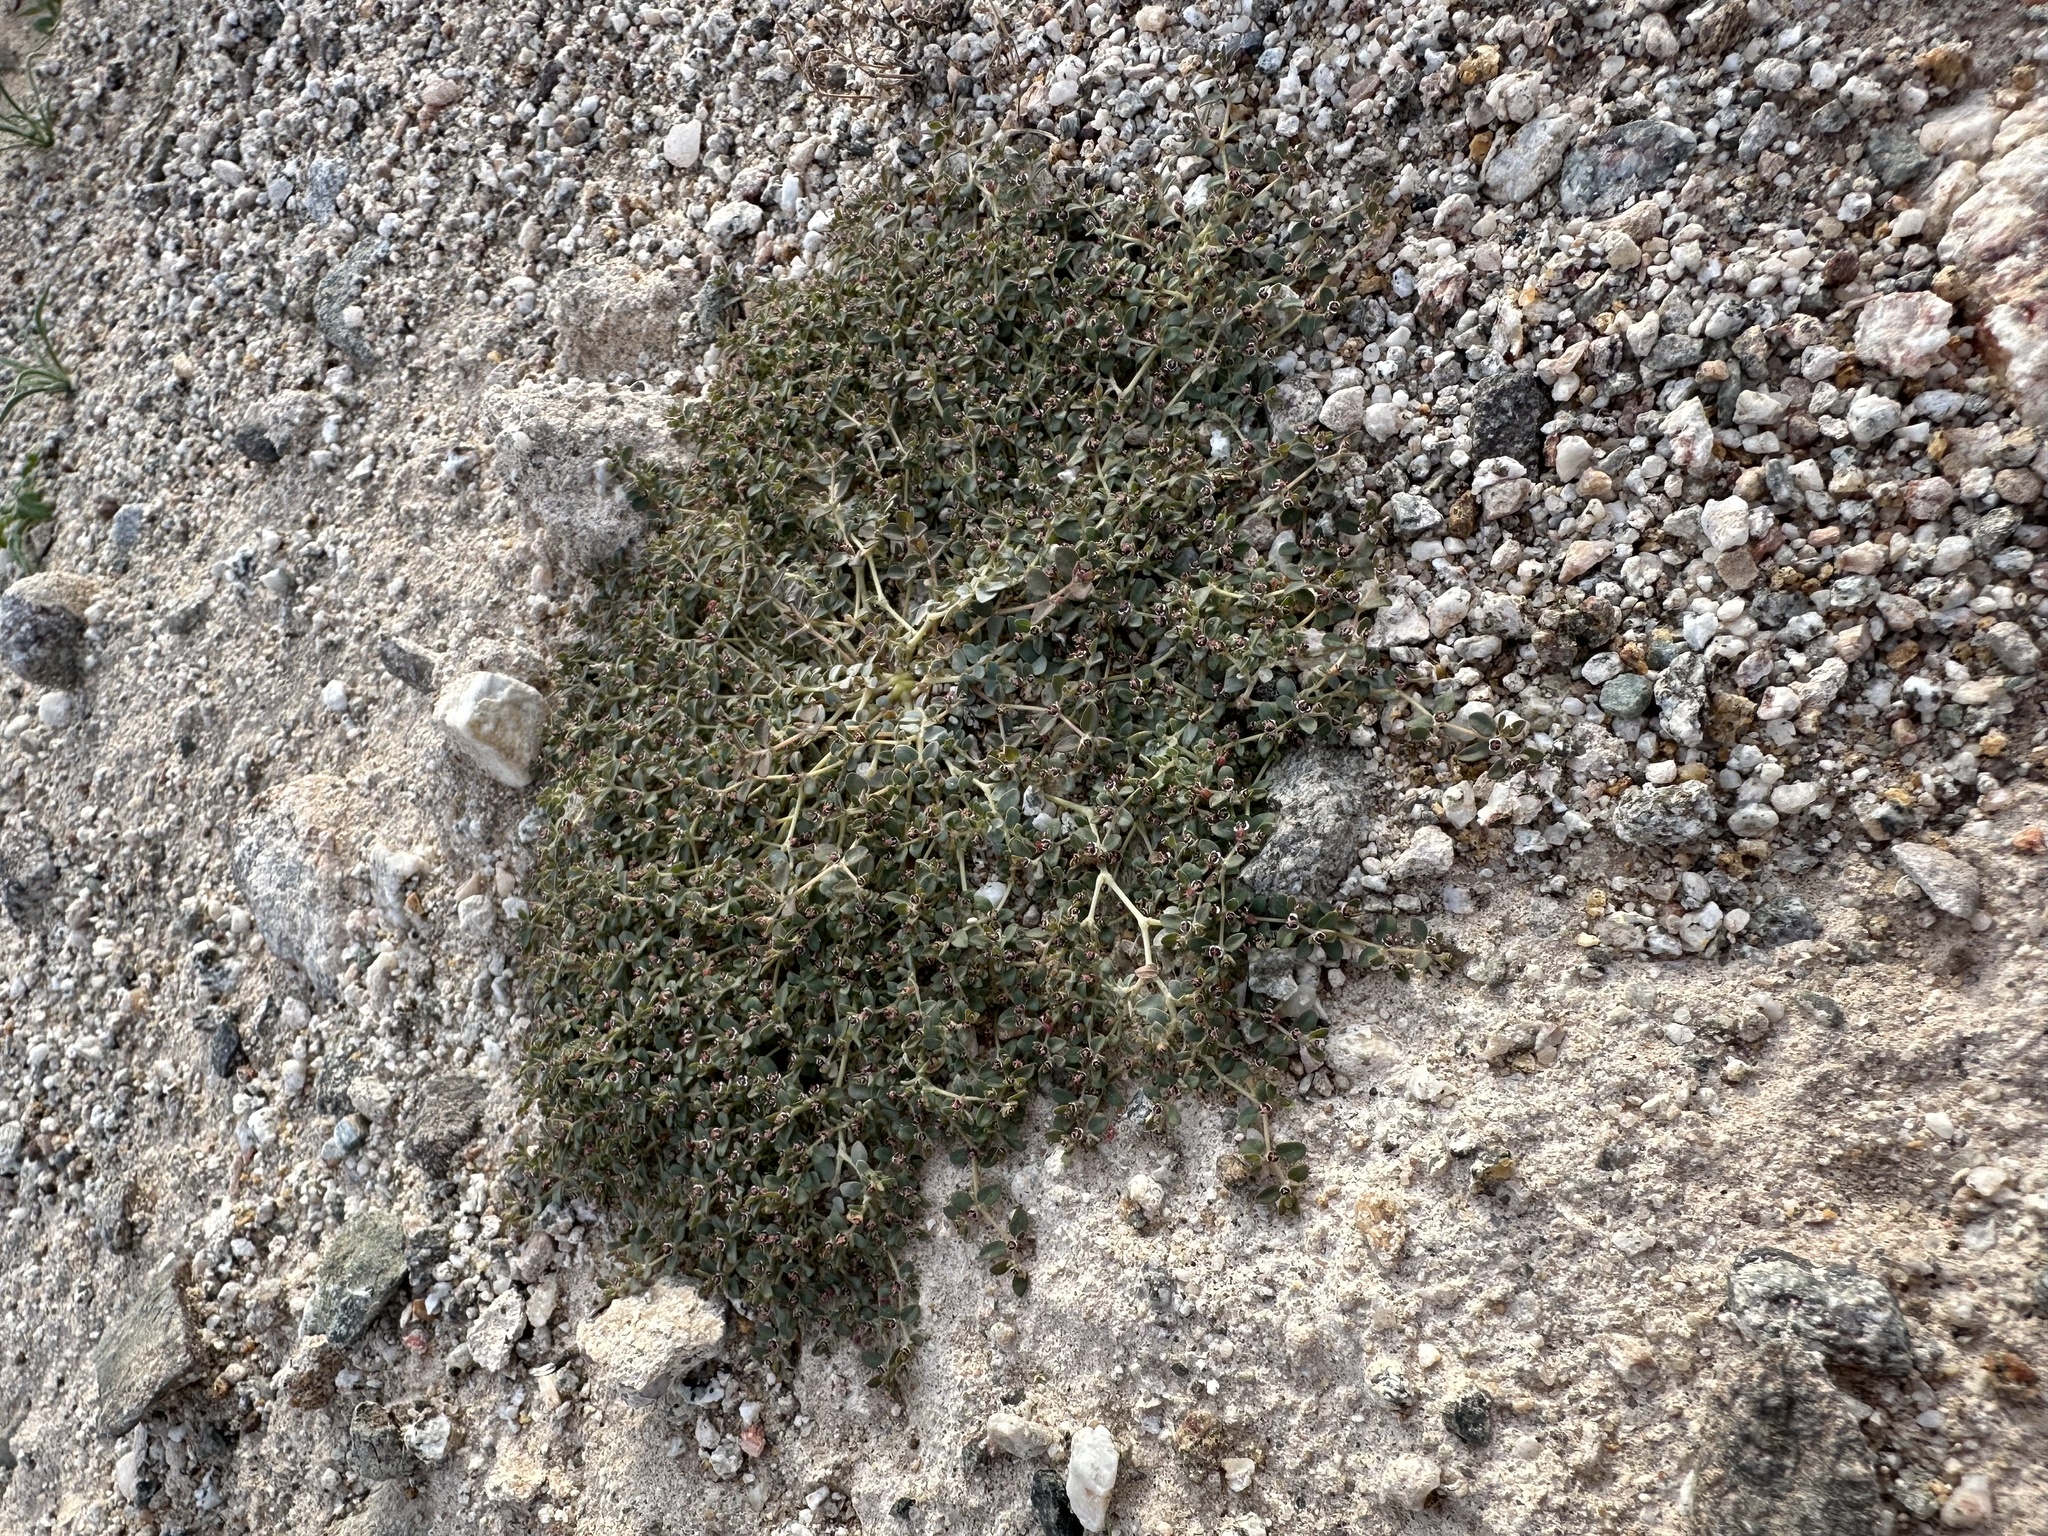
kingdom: Plantae
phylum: Tracheophyta
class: Magnoliopsida
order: Malpighiales
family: Euphorbiaceae
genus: Euphorbia
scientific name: Euphorbia polycarpa
